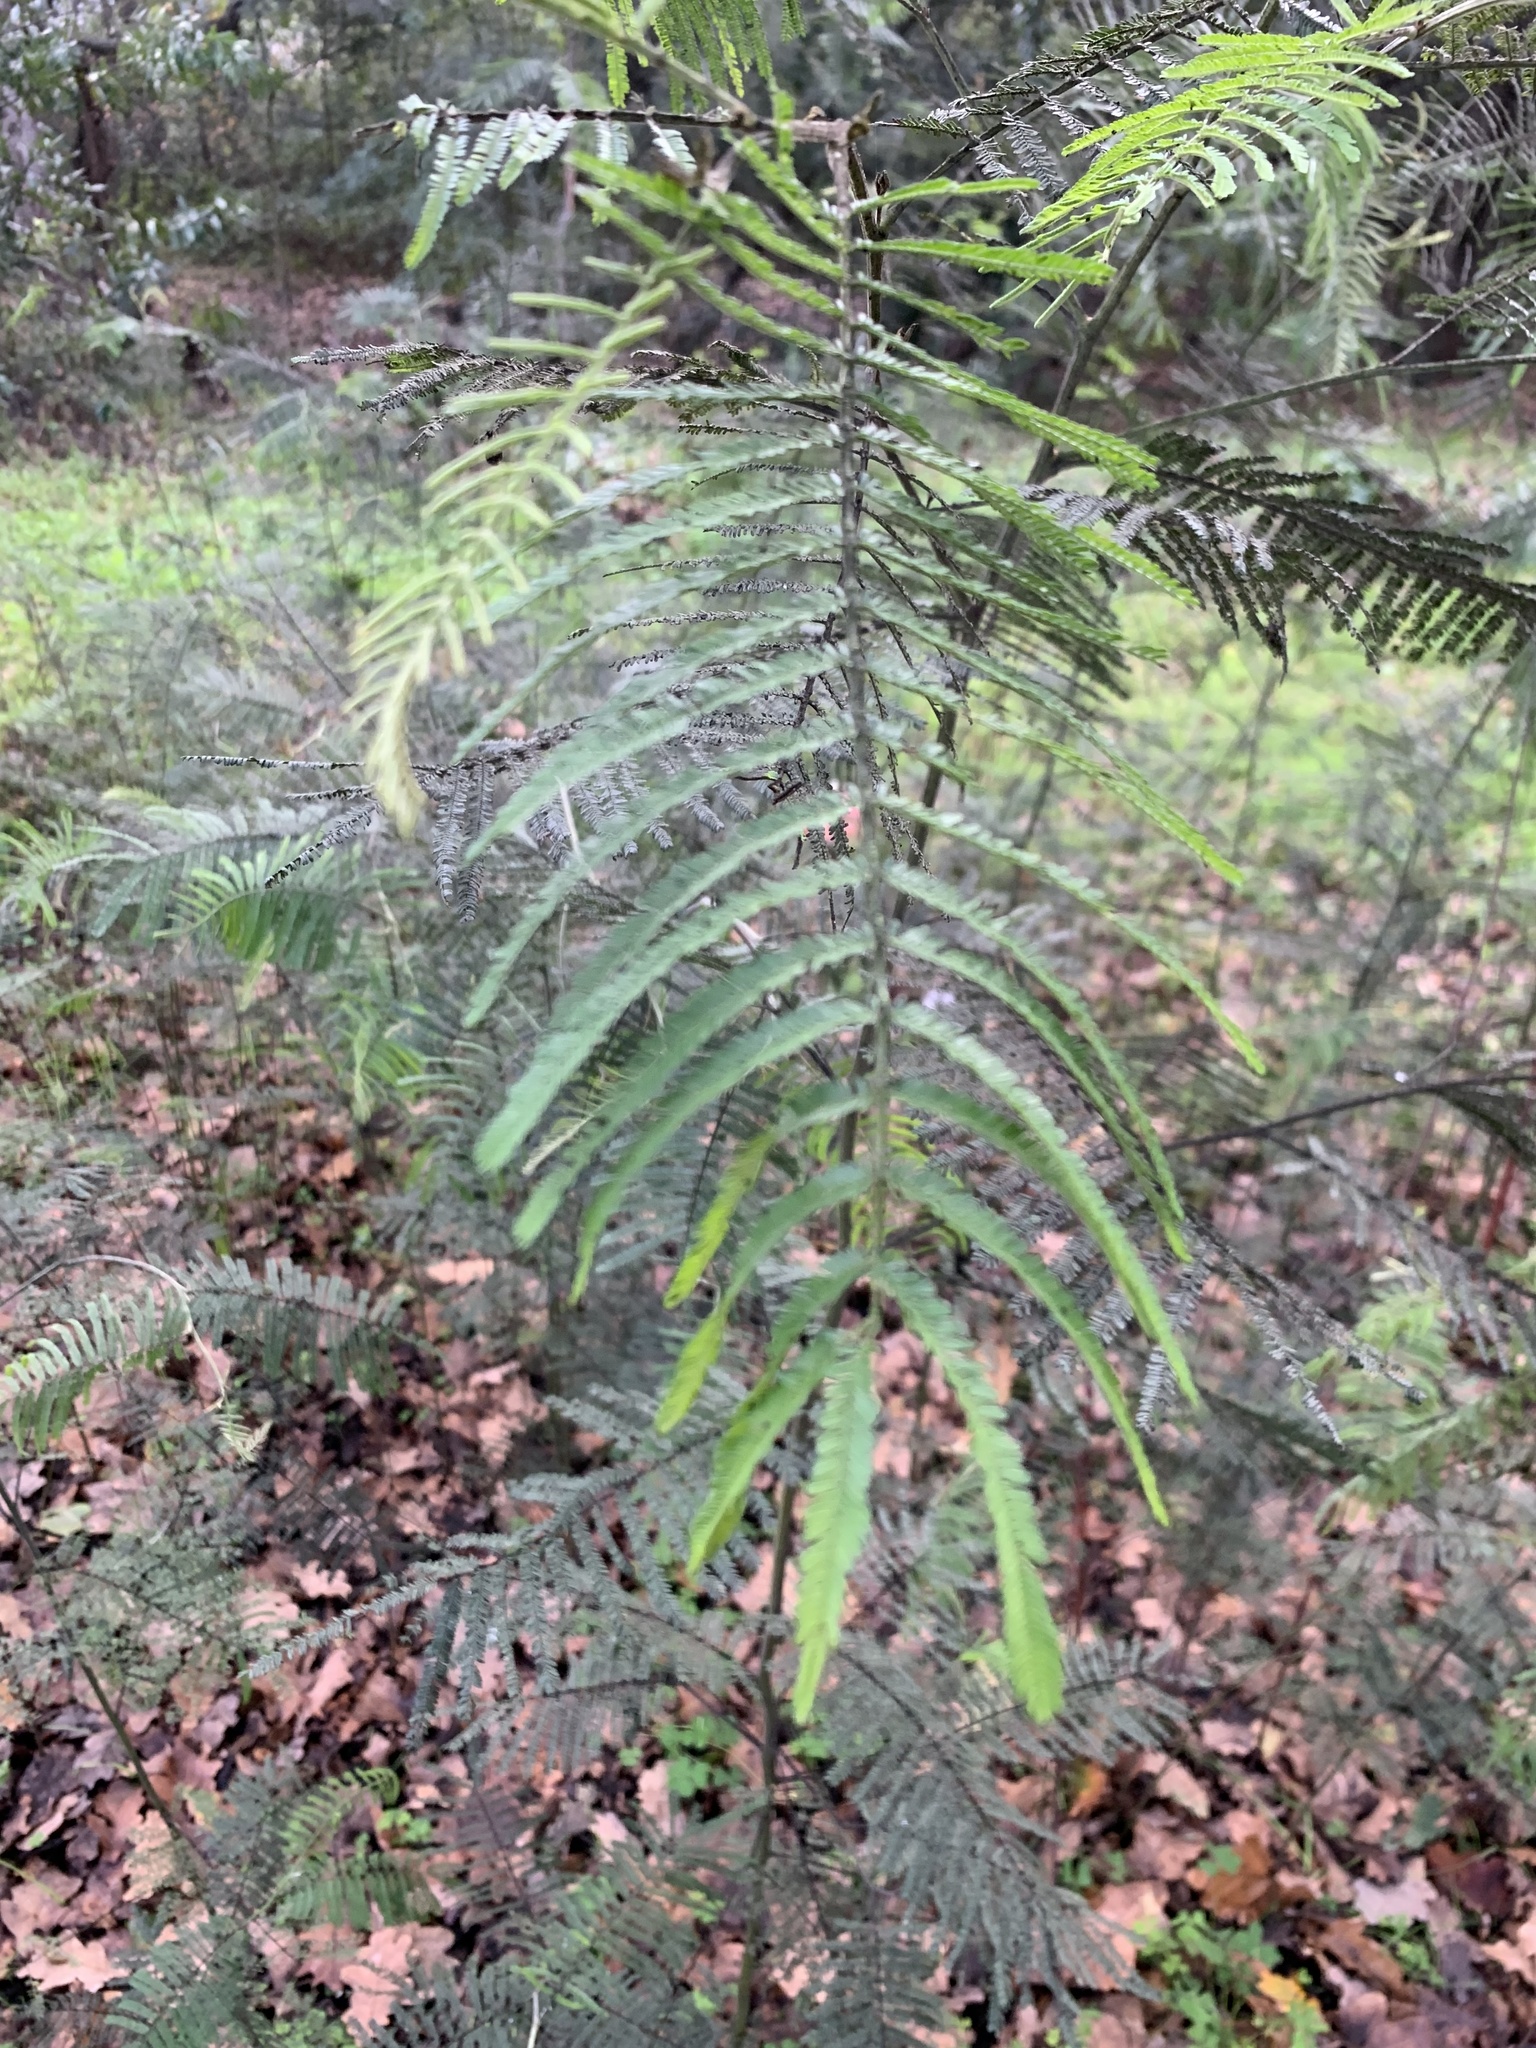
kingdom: Plantae
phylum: Tracheophyta
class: Magnoliopsida
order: Fabales
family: Fabaceae
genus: Acacia
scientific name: Acacia mearnsii
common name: Black wattle
